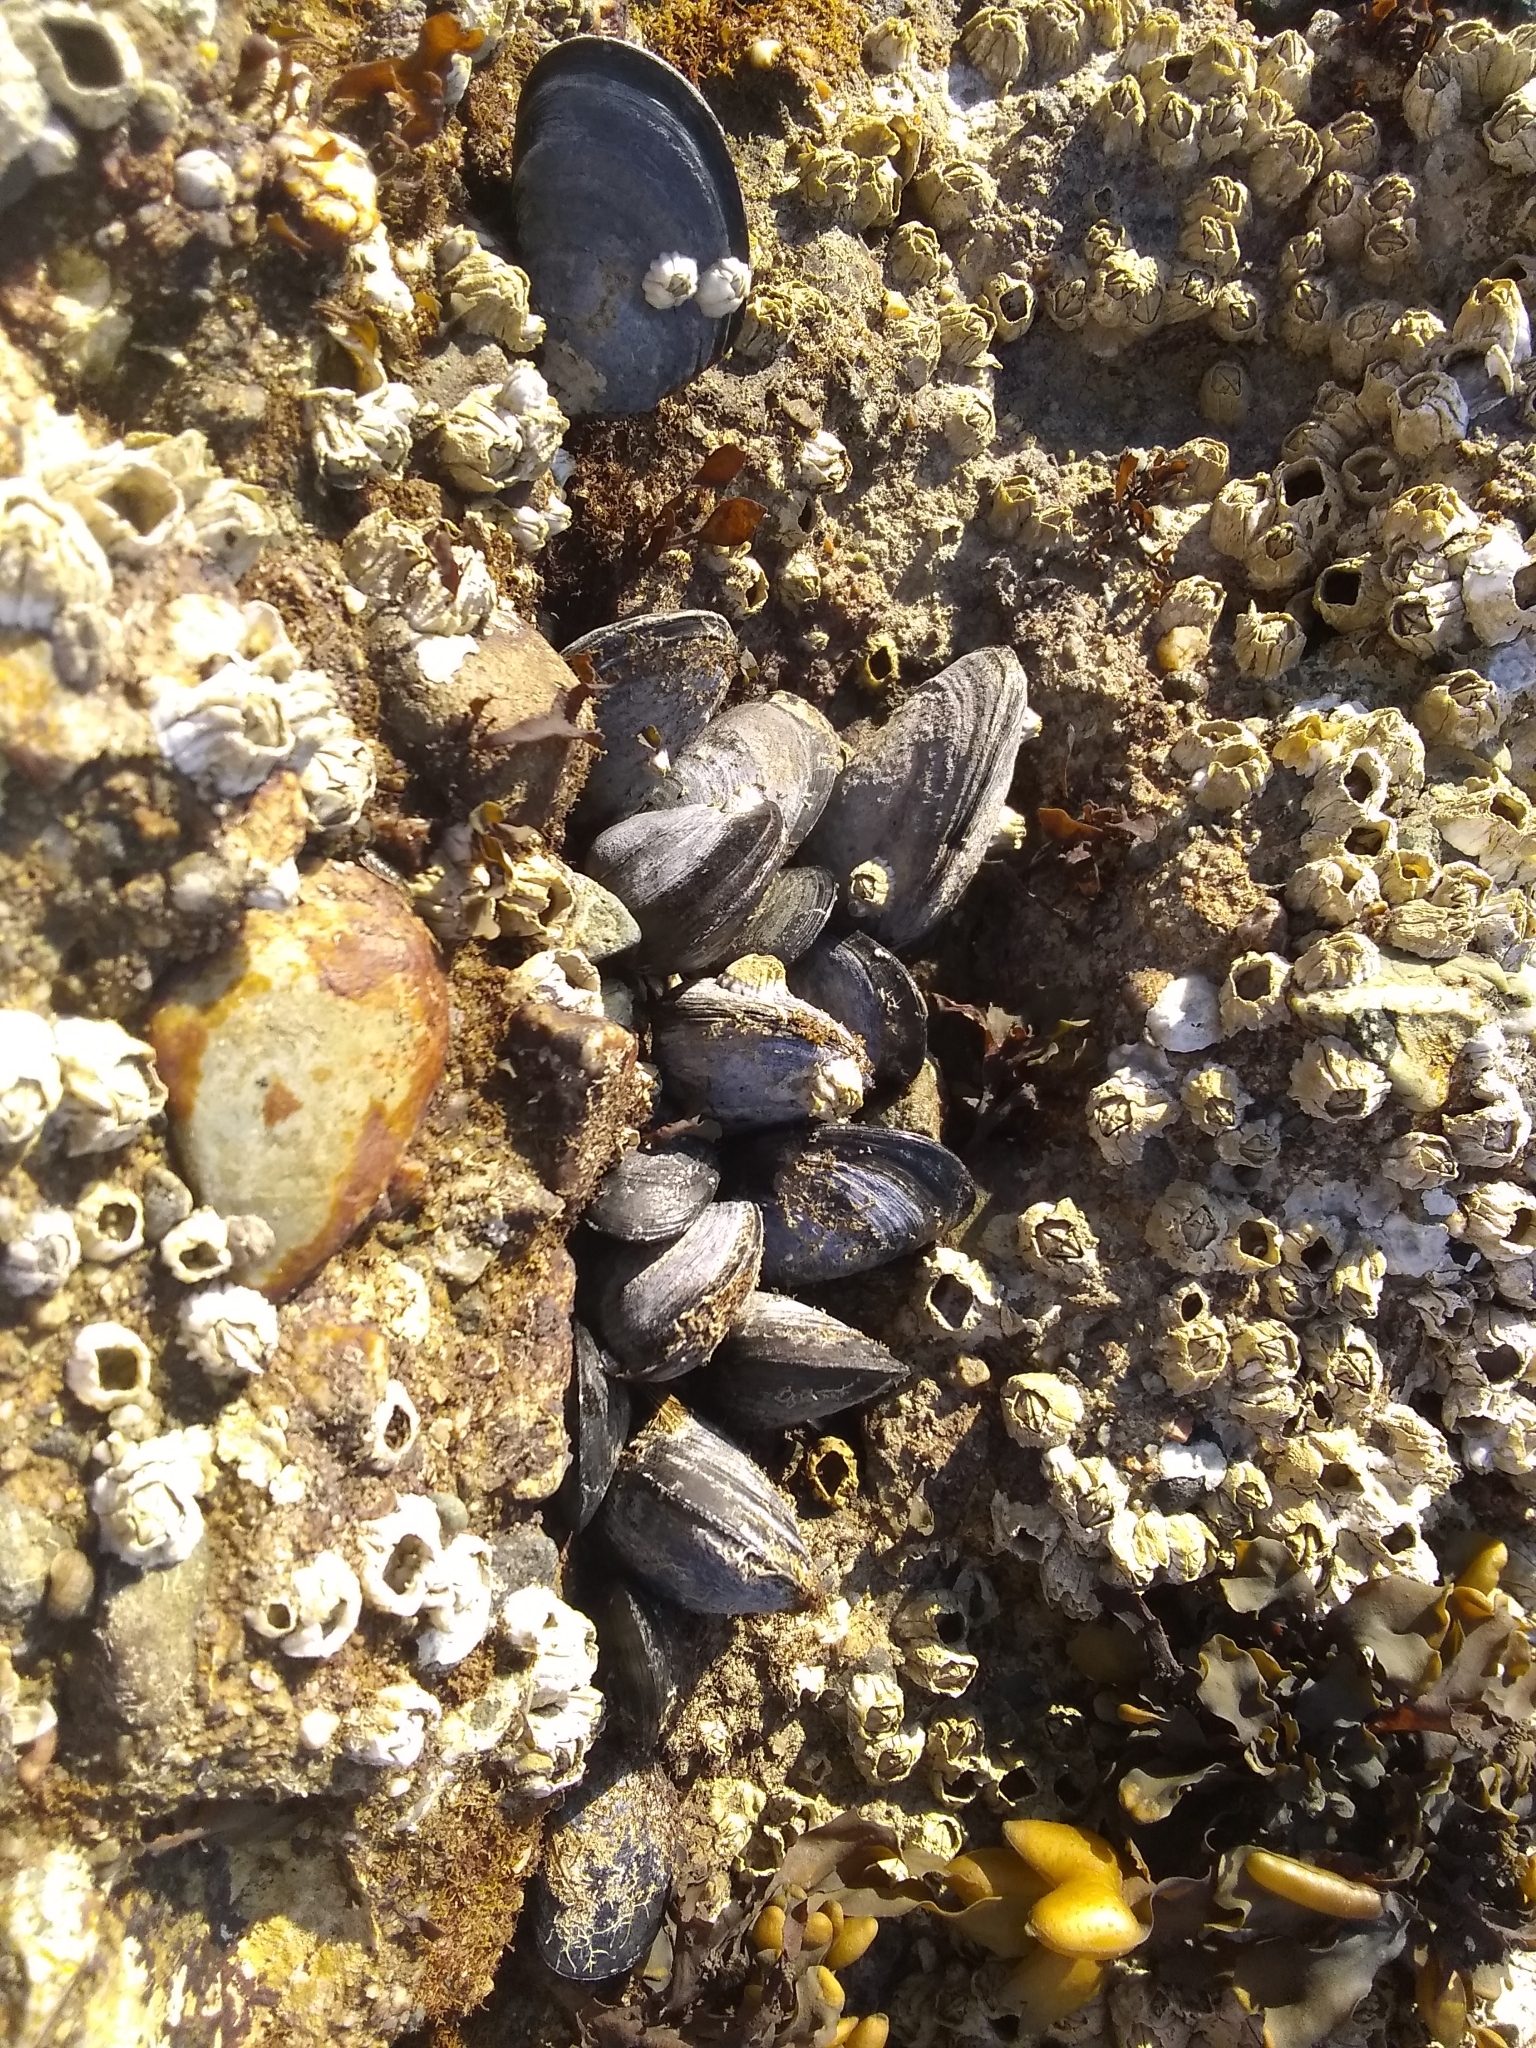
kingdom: Animalia
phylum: Mollusca
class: Bivalvia
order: Mytilida
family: Mytilidae
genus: Mytilus
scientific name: Mytilus
